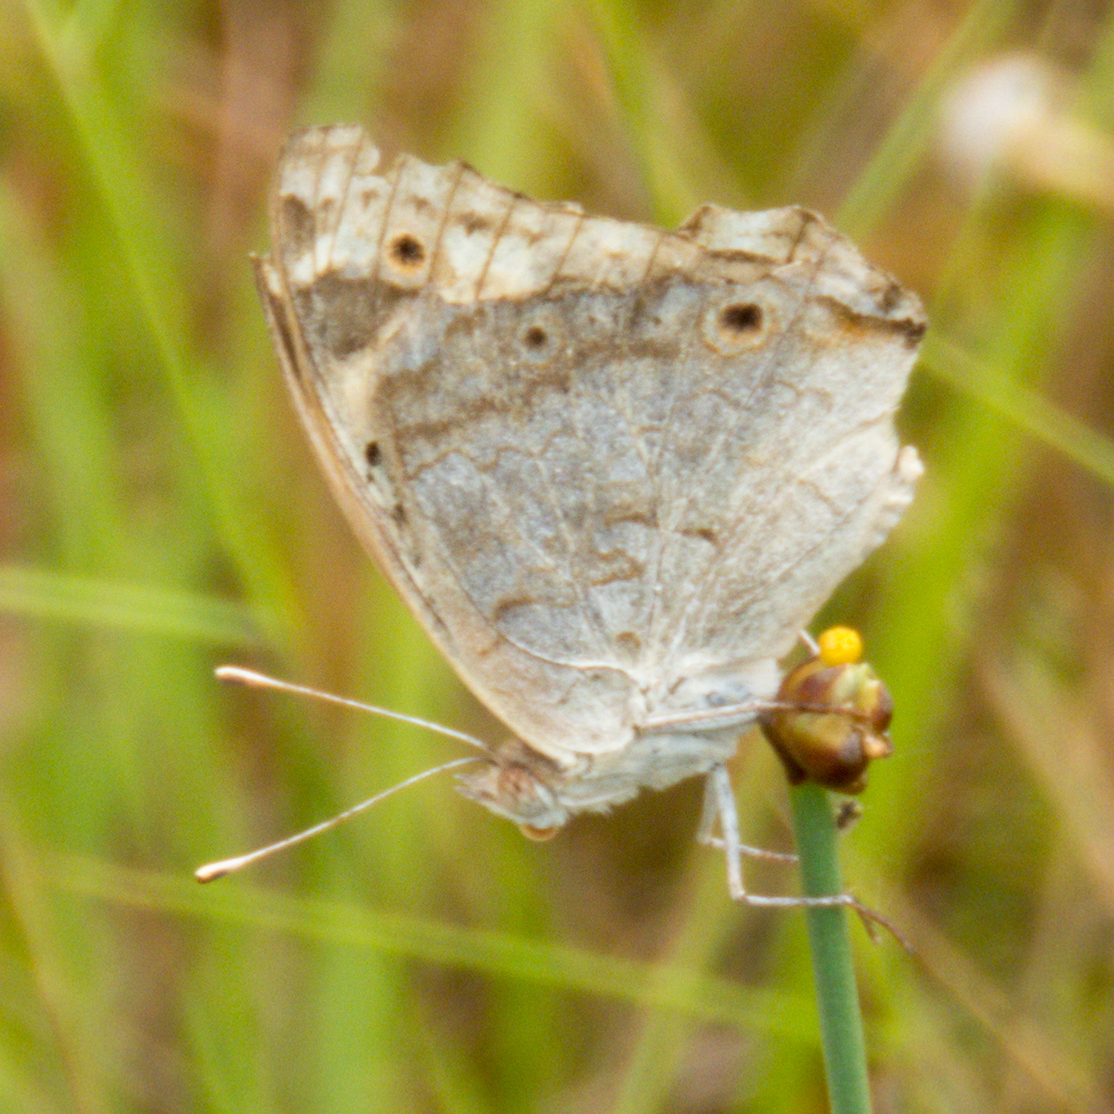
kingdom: Animalia
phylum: Arthropoda
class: Insecta
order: Lepidoptera
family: Nymphalidae
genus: Junonia
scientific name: Junonia orithya
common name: Blue pansy
